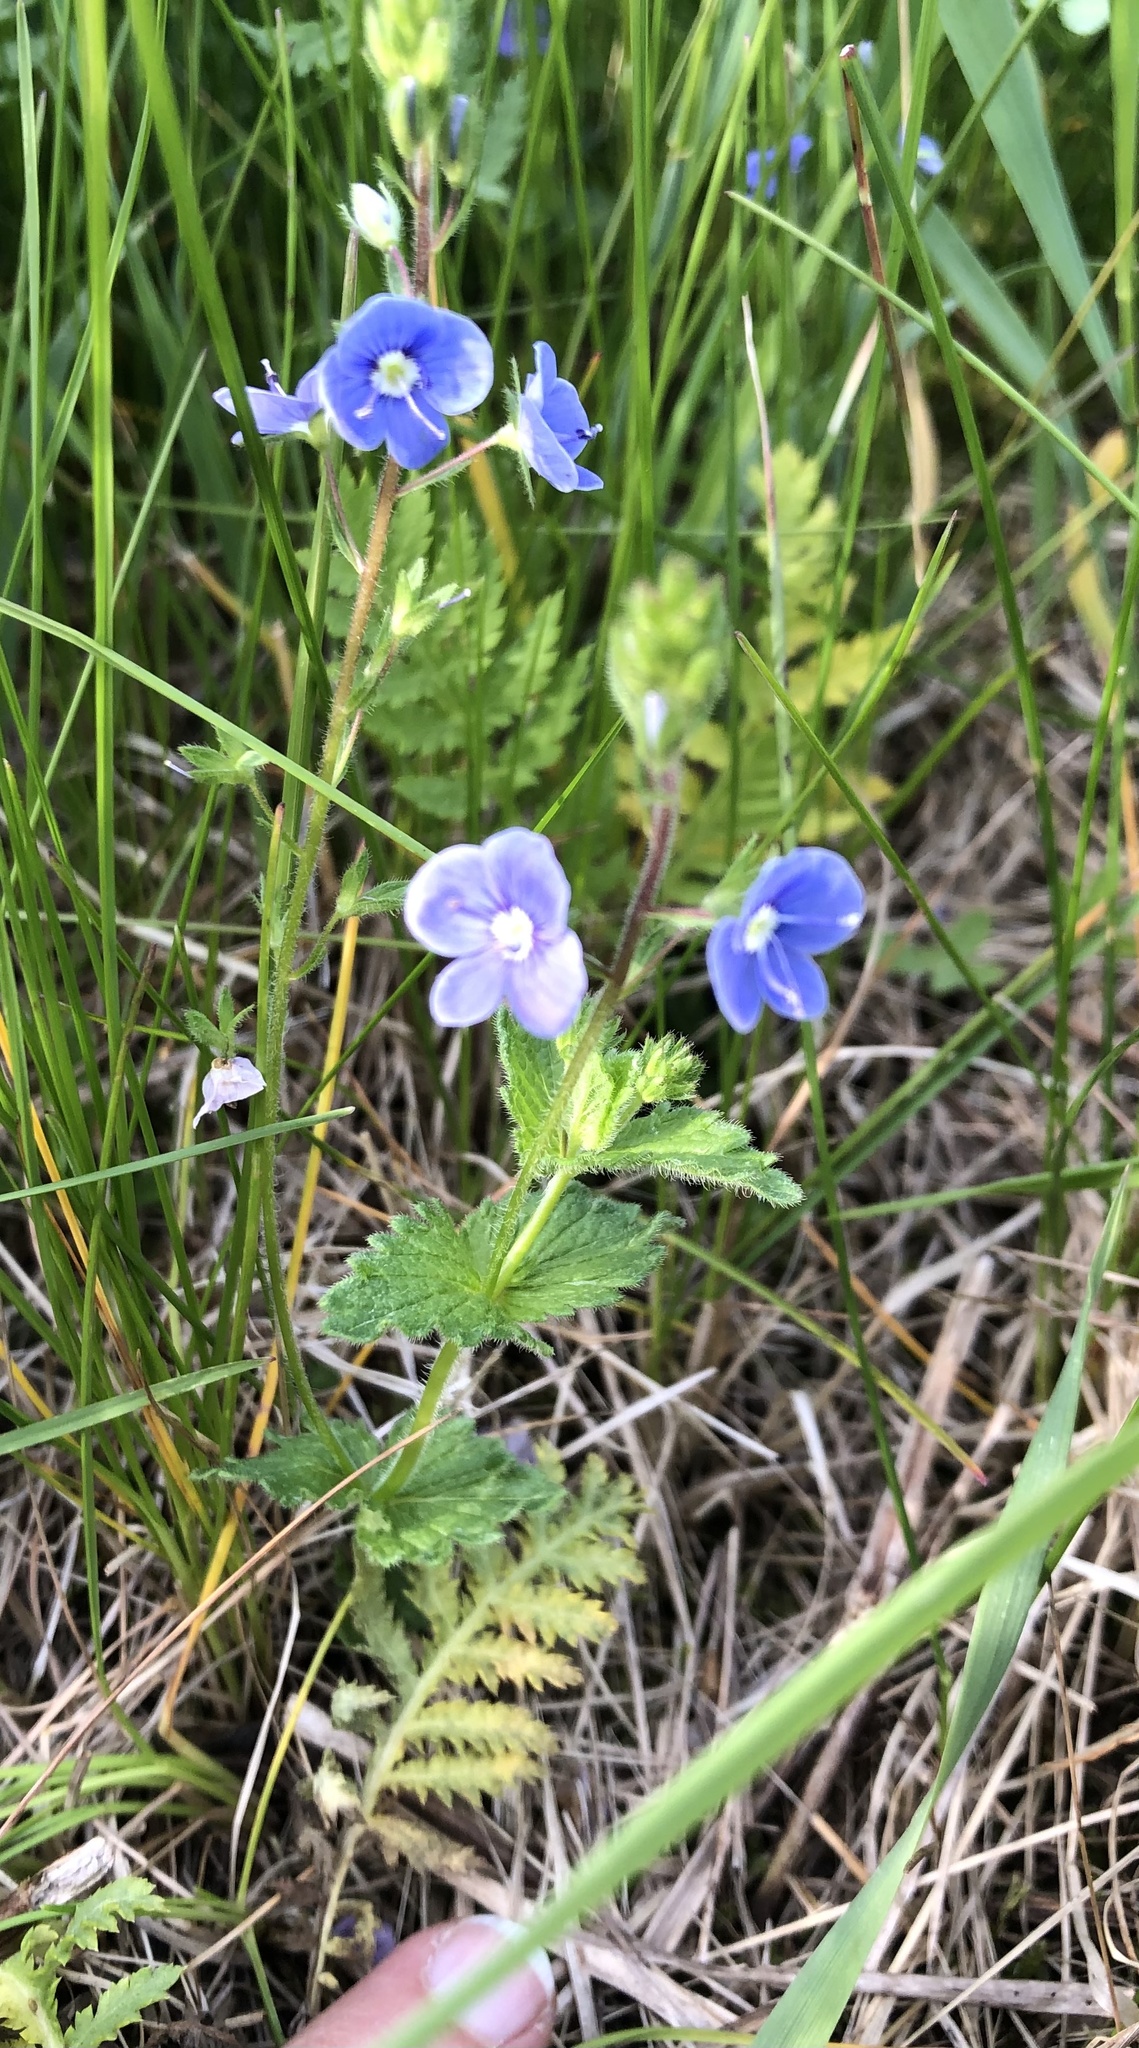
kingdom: Plantae
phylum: Tracheophyta
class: Magnoliopsida
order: Lamiales
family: Plantaginaceae
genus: Veronica
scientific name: Veronica chamaedrys
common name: Germander speedwell
